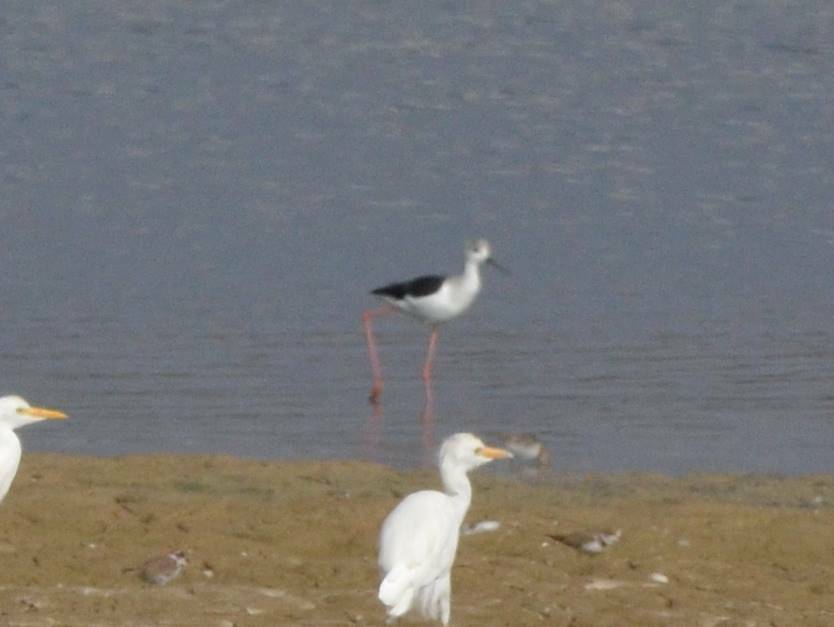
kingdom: Animalia
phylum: Chordata
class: Aves
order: Pelecaniformes
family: Ardeidae
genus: Bubulcus
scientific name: Bubulcus ibis
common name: Cattle egret
